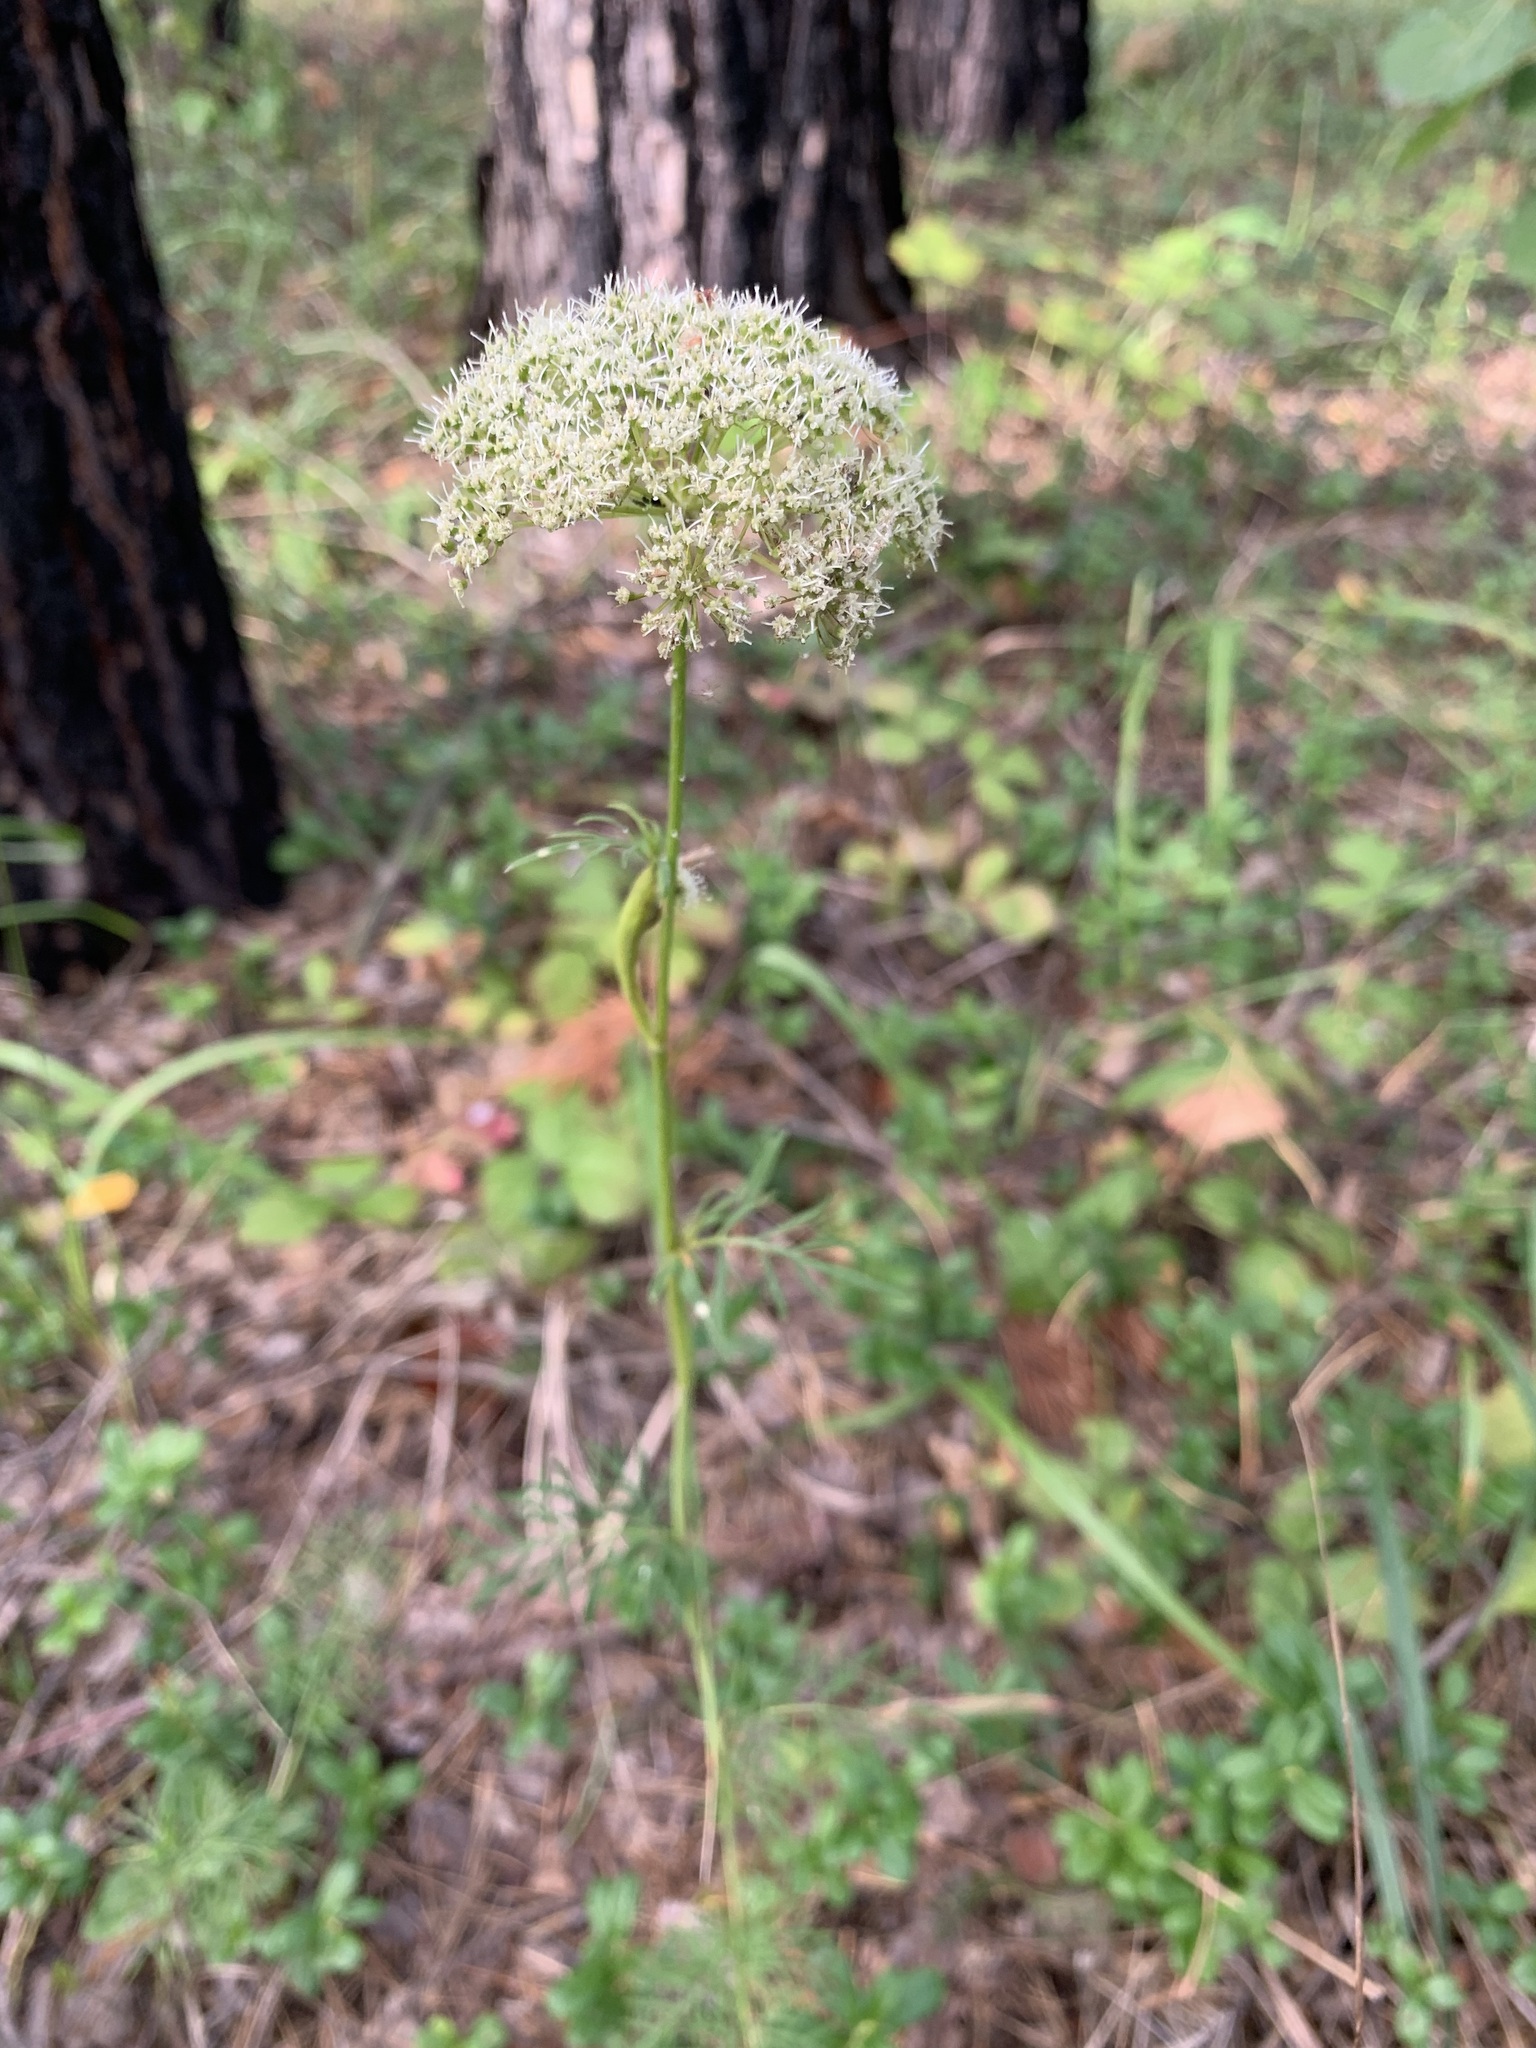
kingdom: Plantae
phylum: Tracheophyta
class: Magnoliopsida
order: Apiales
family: Apiaceae
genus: Kadenia
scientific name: Kadenia dubia
